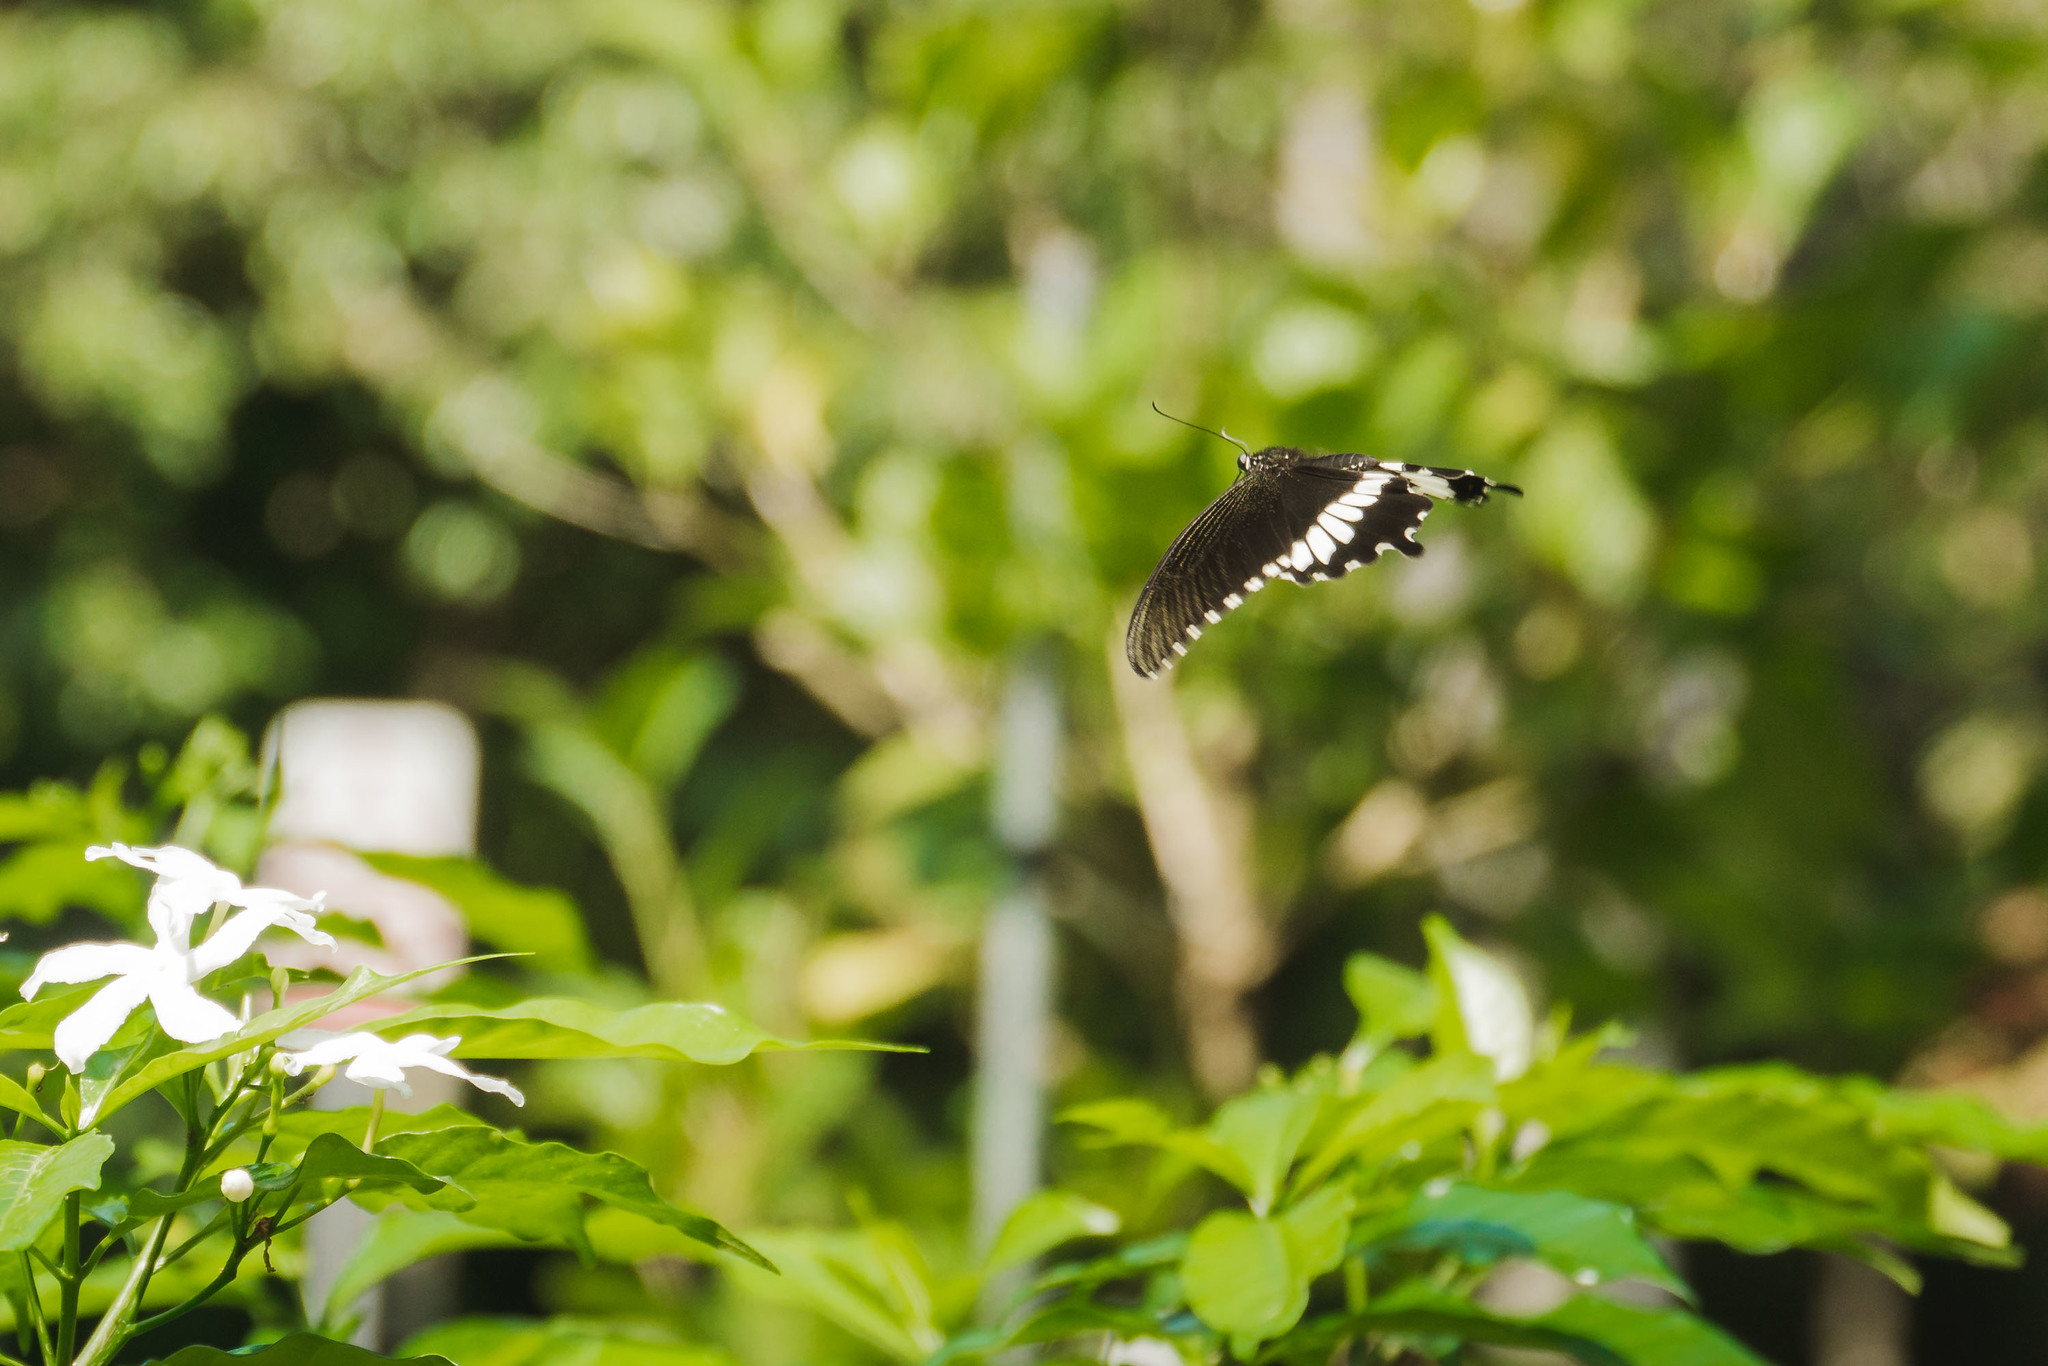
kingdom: Animalia
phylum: Arthropoda
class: Insecta
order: Lepidoptera
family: Papilionidae
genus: Papilio
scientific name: Papilio polytes
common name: Common mormon
